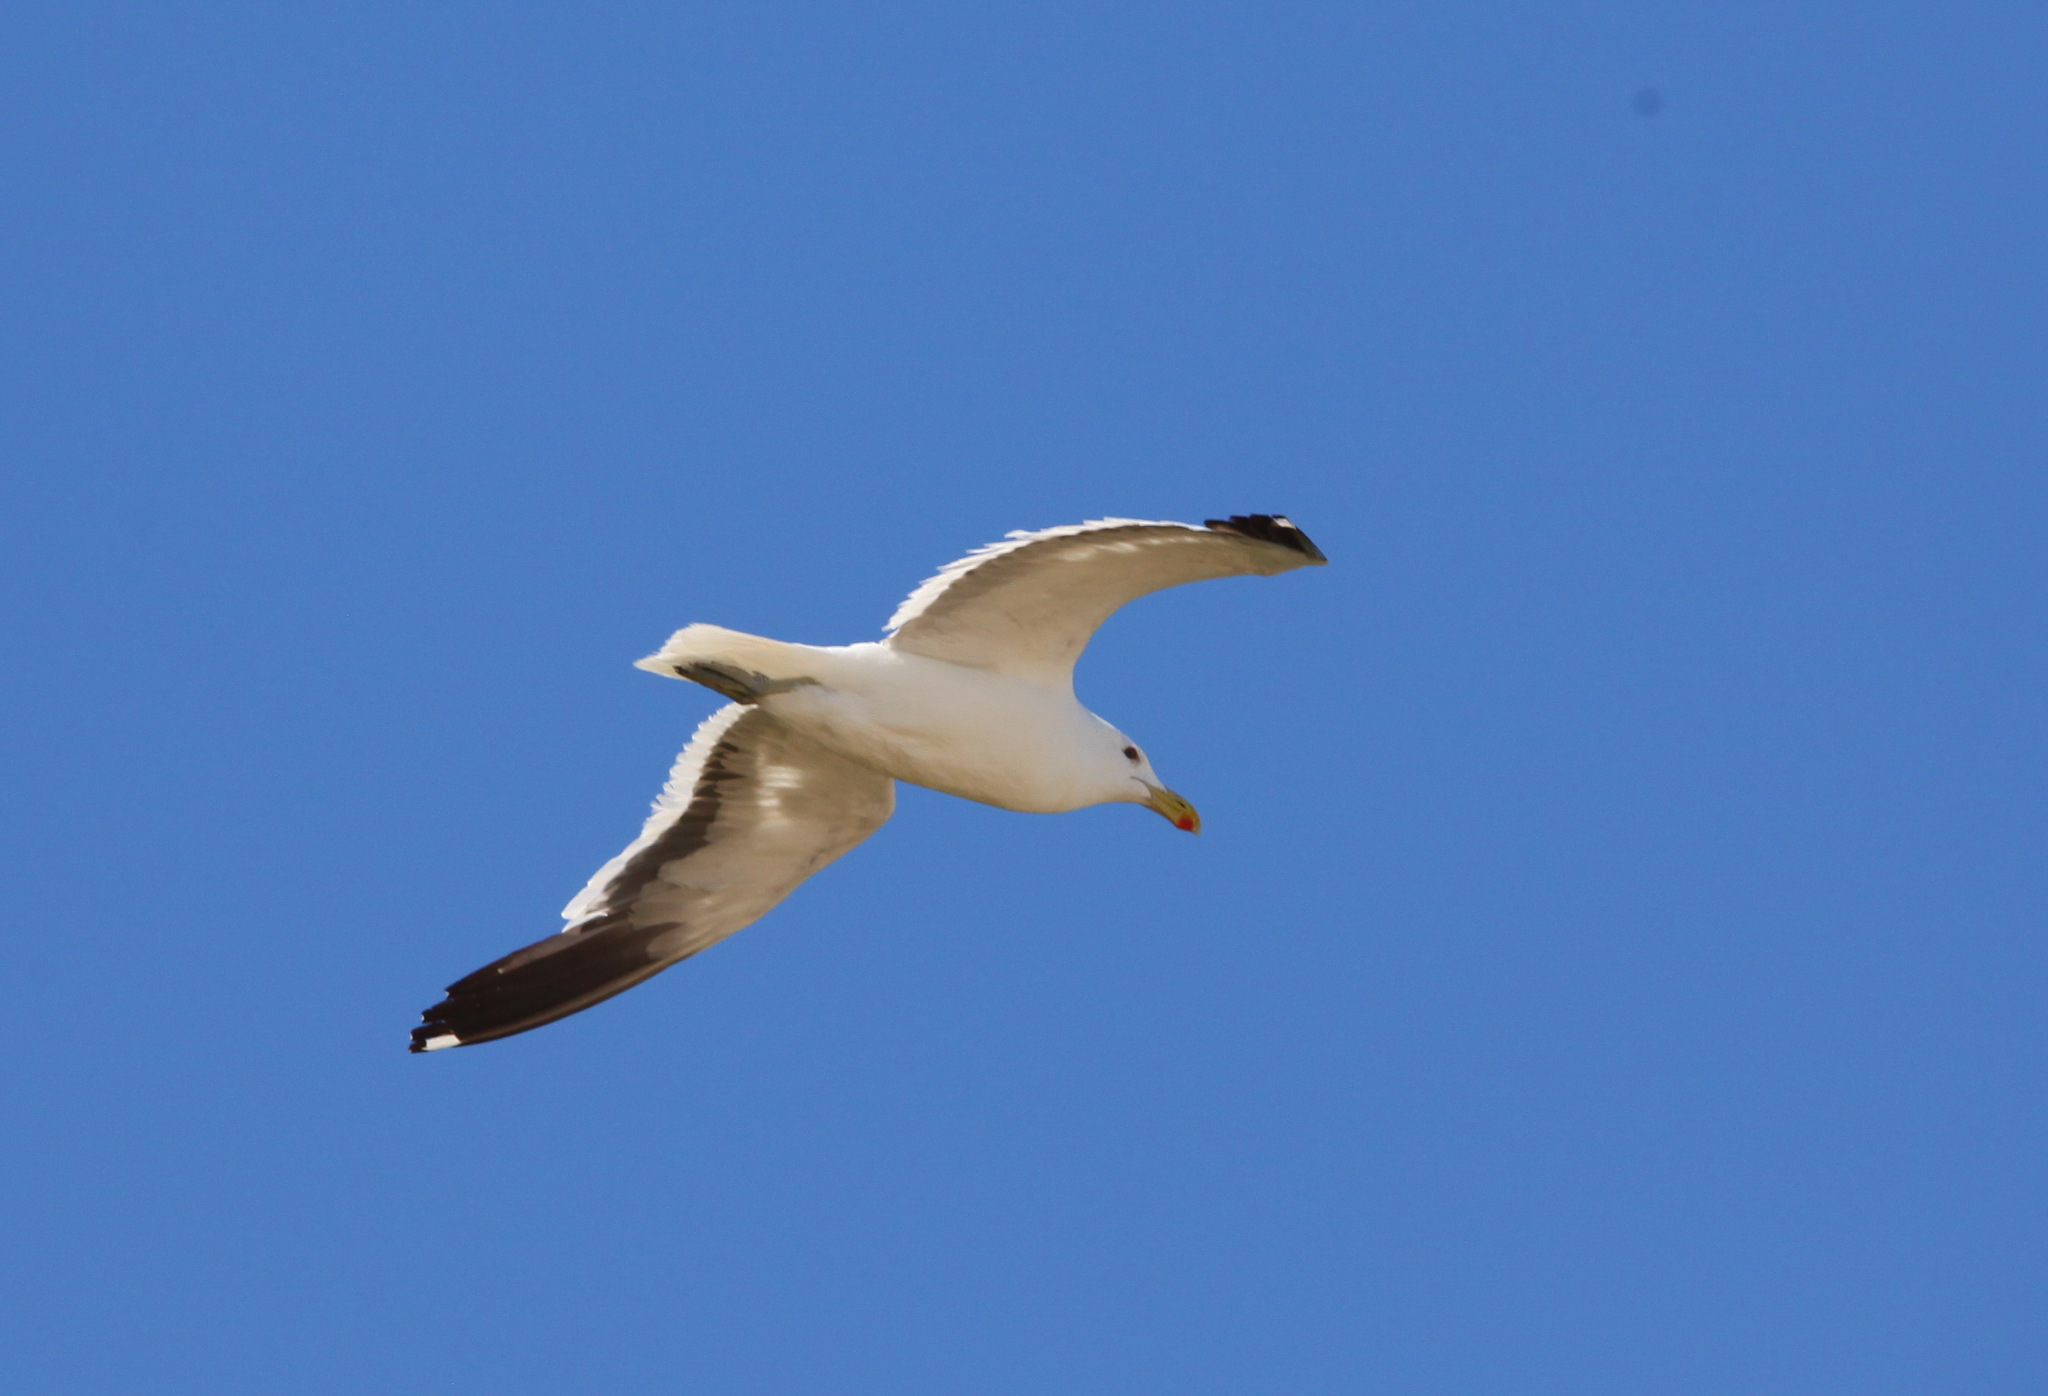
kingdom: Animalia
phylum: Chordata
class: Aves
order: Charadriiformes
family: Laridae
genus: Larus
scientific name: Larus dominicanus
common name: Kelp gull
